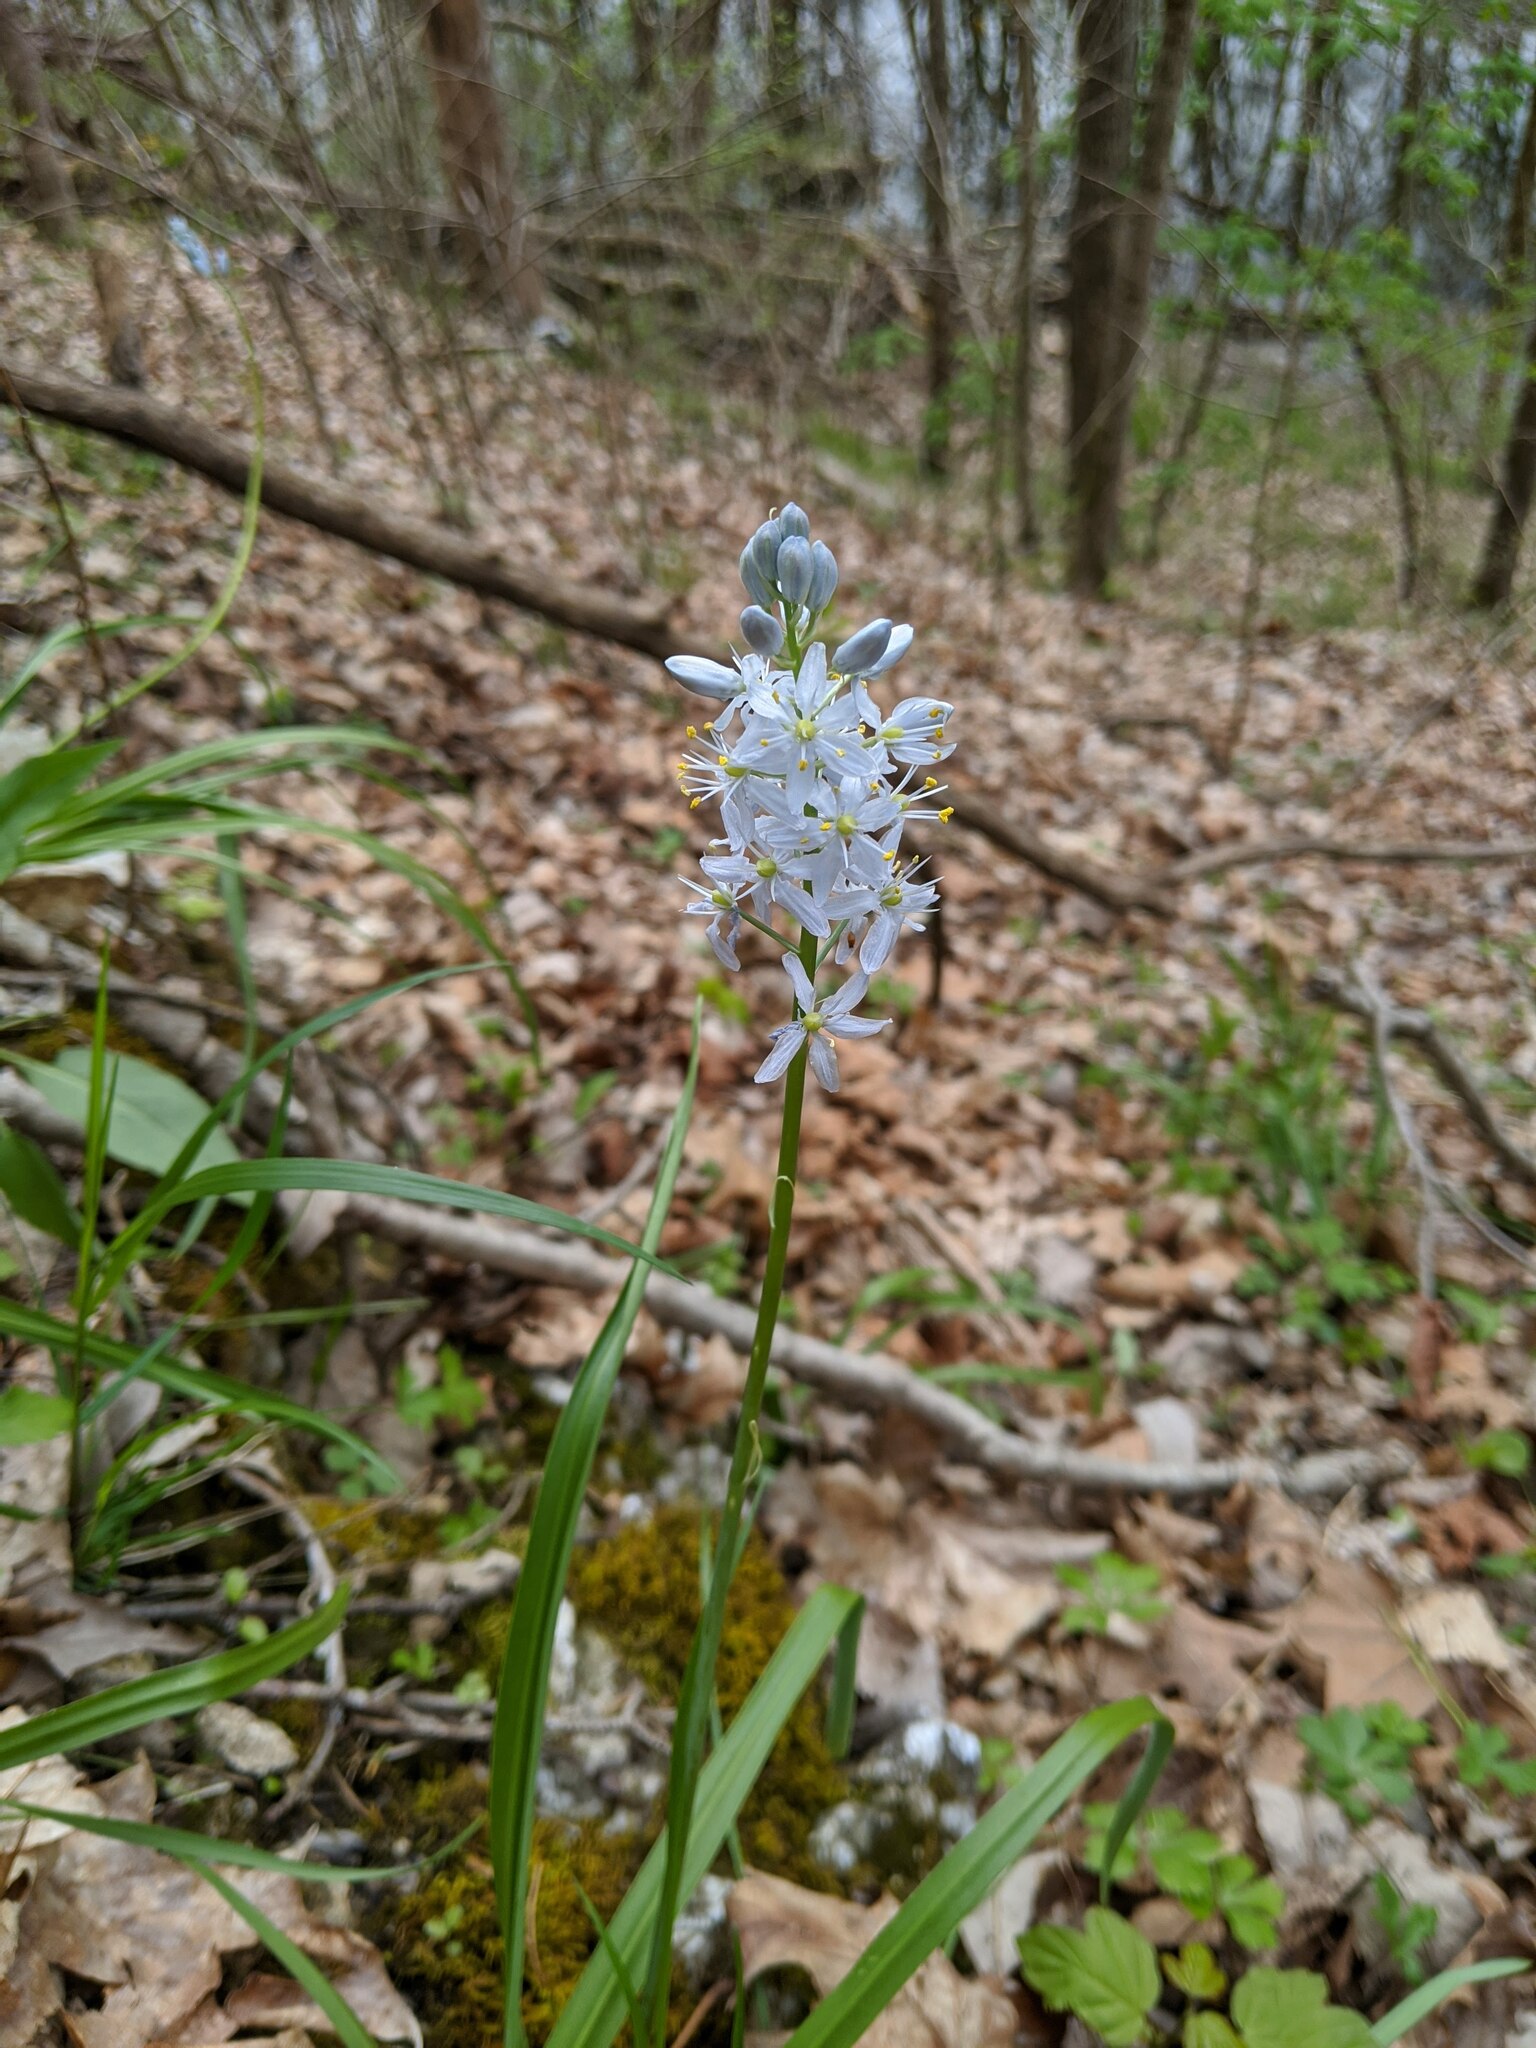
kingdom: Plantae
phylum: Tracheophyta
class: Liliopsida
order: Asparagales
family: Asparagaceae
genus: Camassia
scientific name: Camassia scilloides
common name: Wild hyacinth
